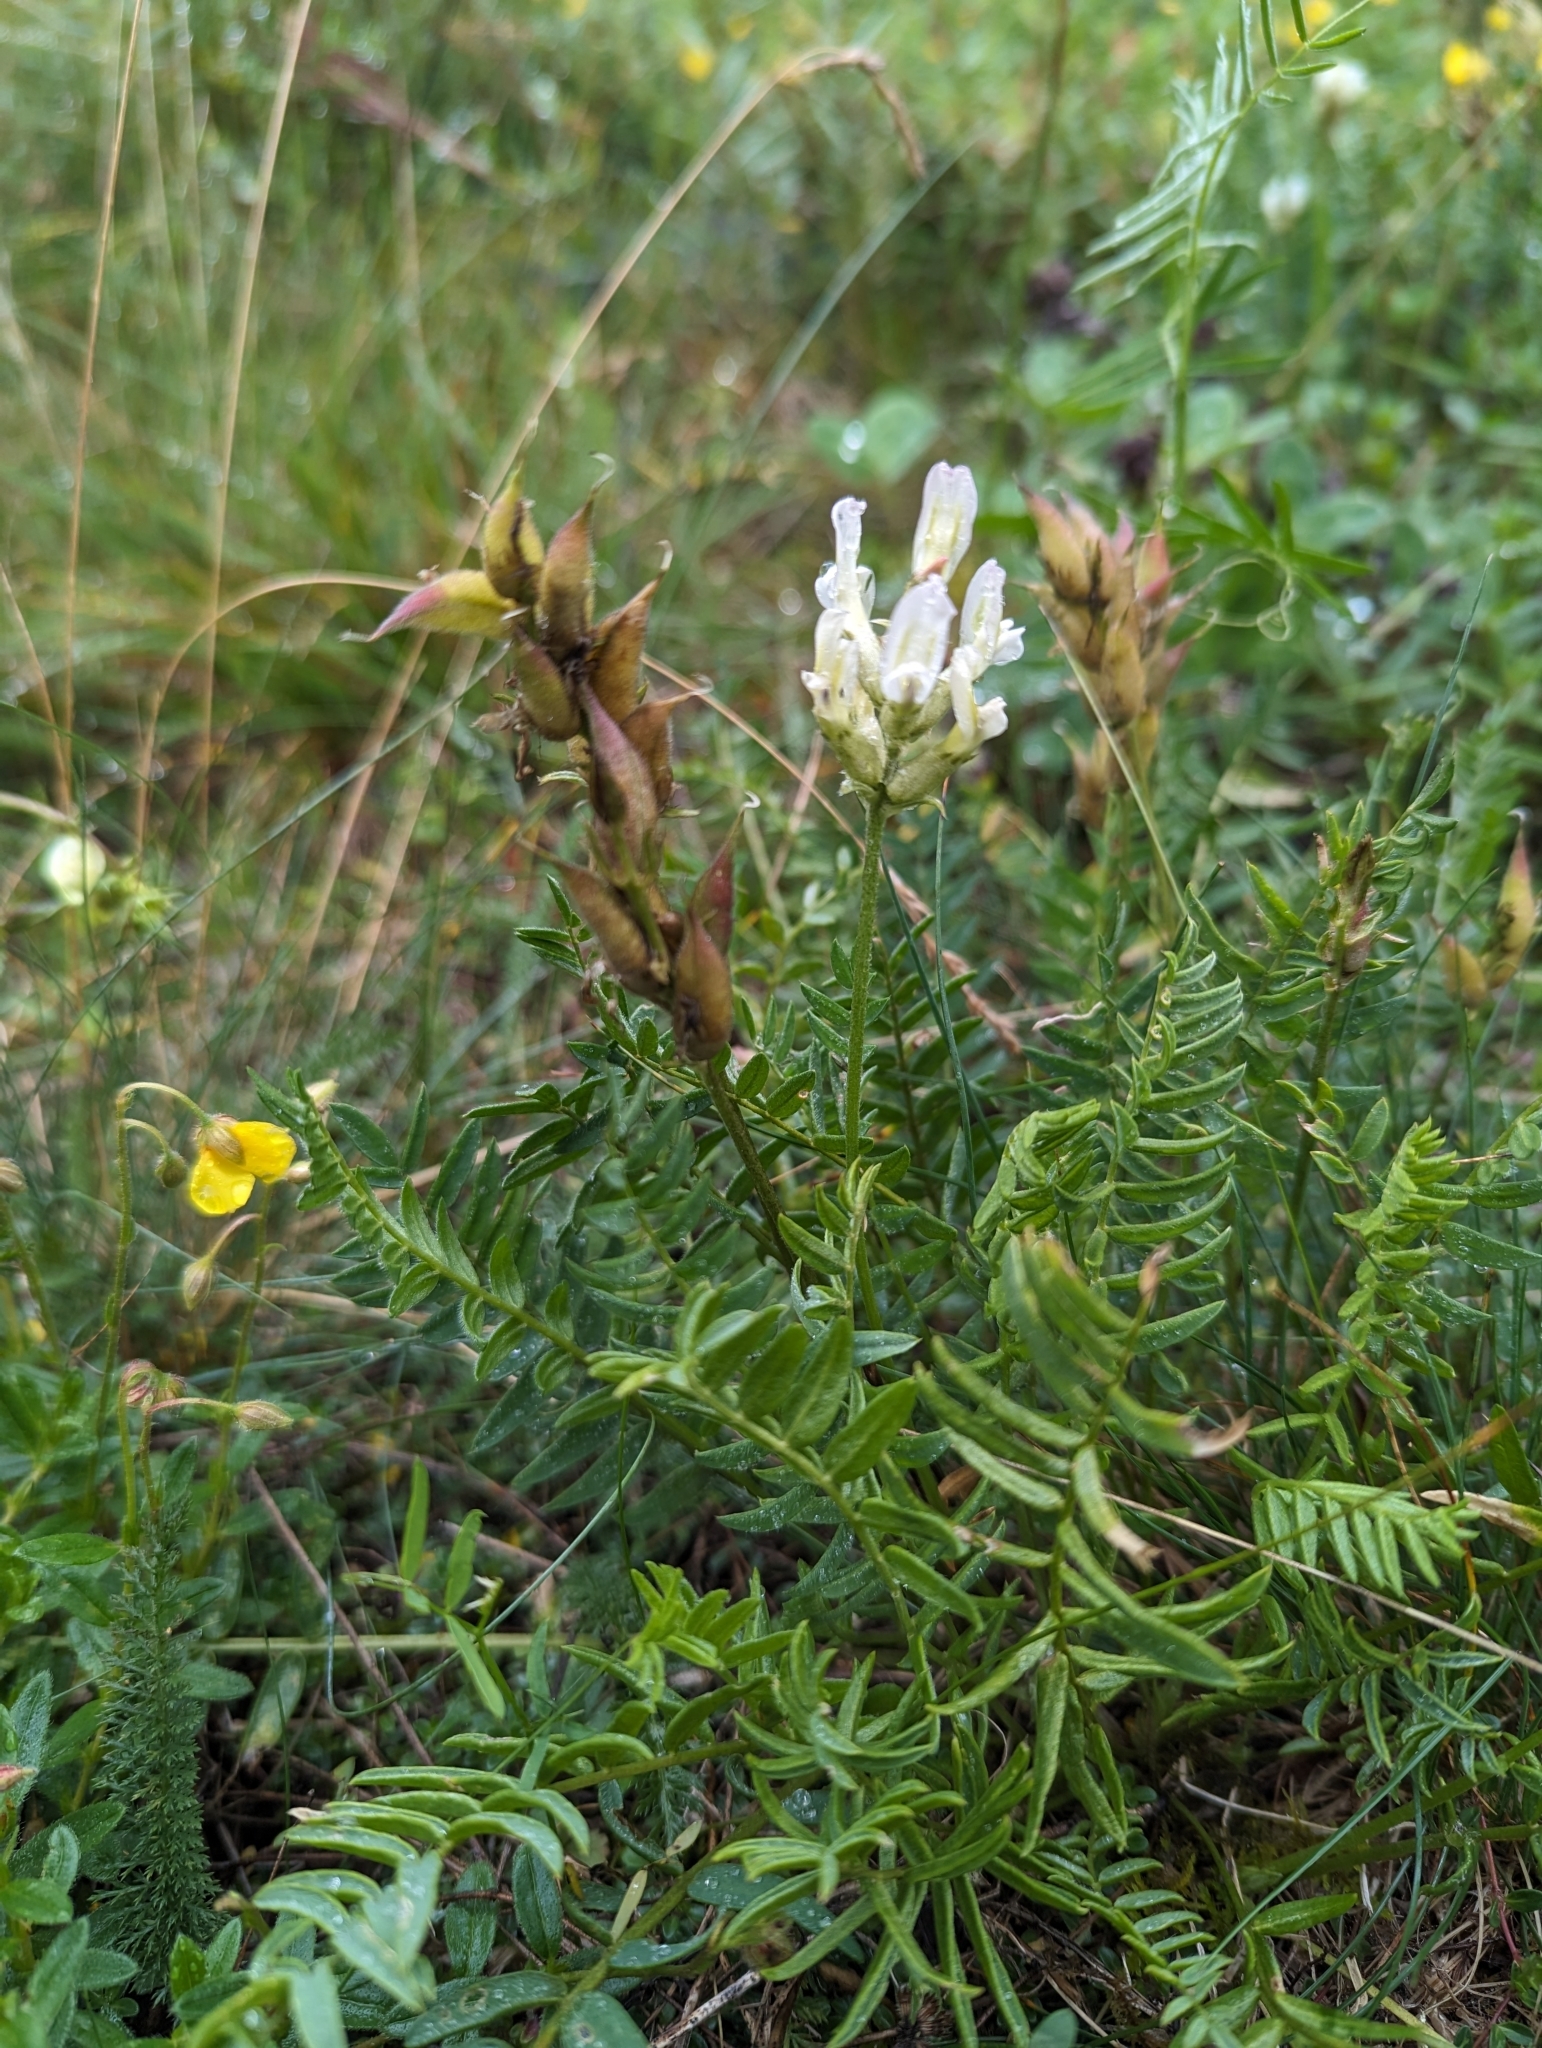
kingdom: Plantae
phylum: Tracheophyta
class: Magnoliopsida
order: Fabales
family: Fabaceae
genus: Oxytropis
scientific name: Oxytropis campestris
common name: Field locoweed
